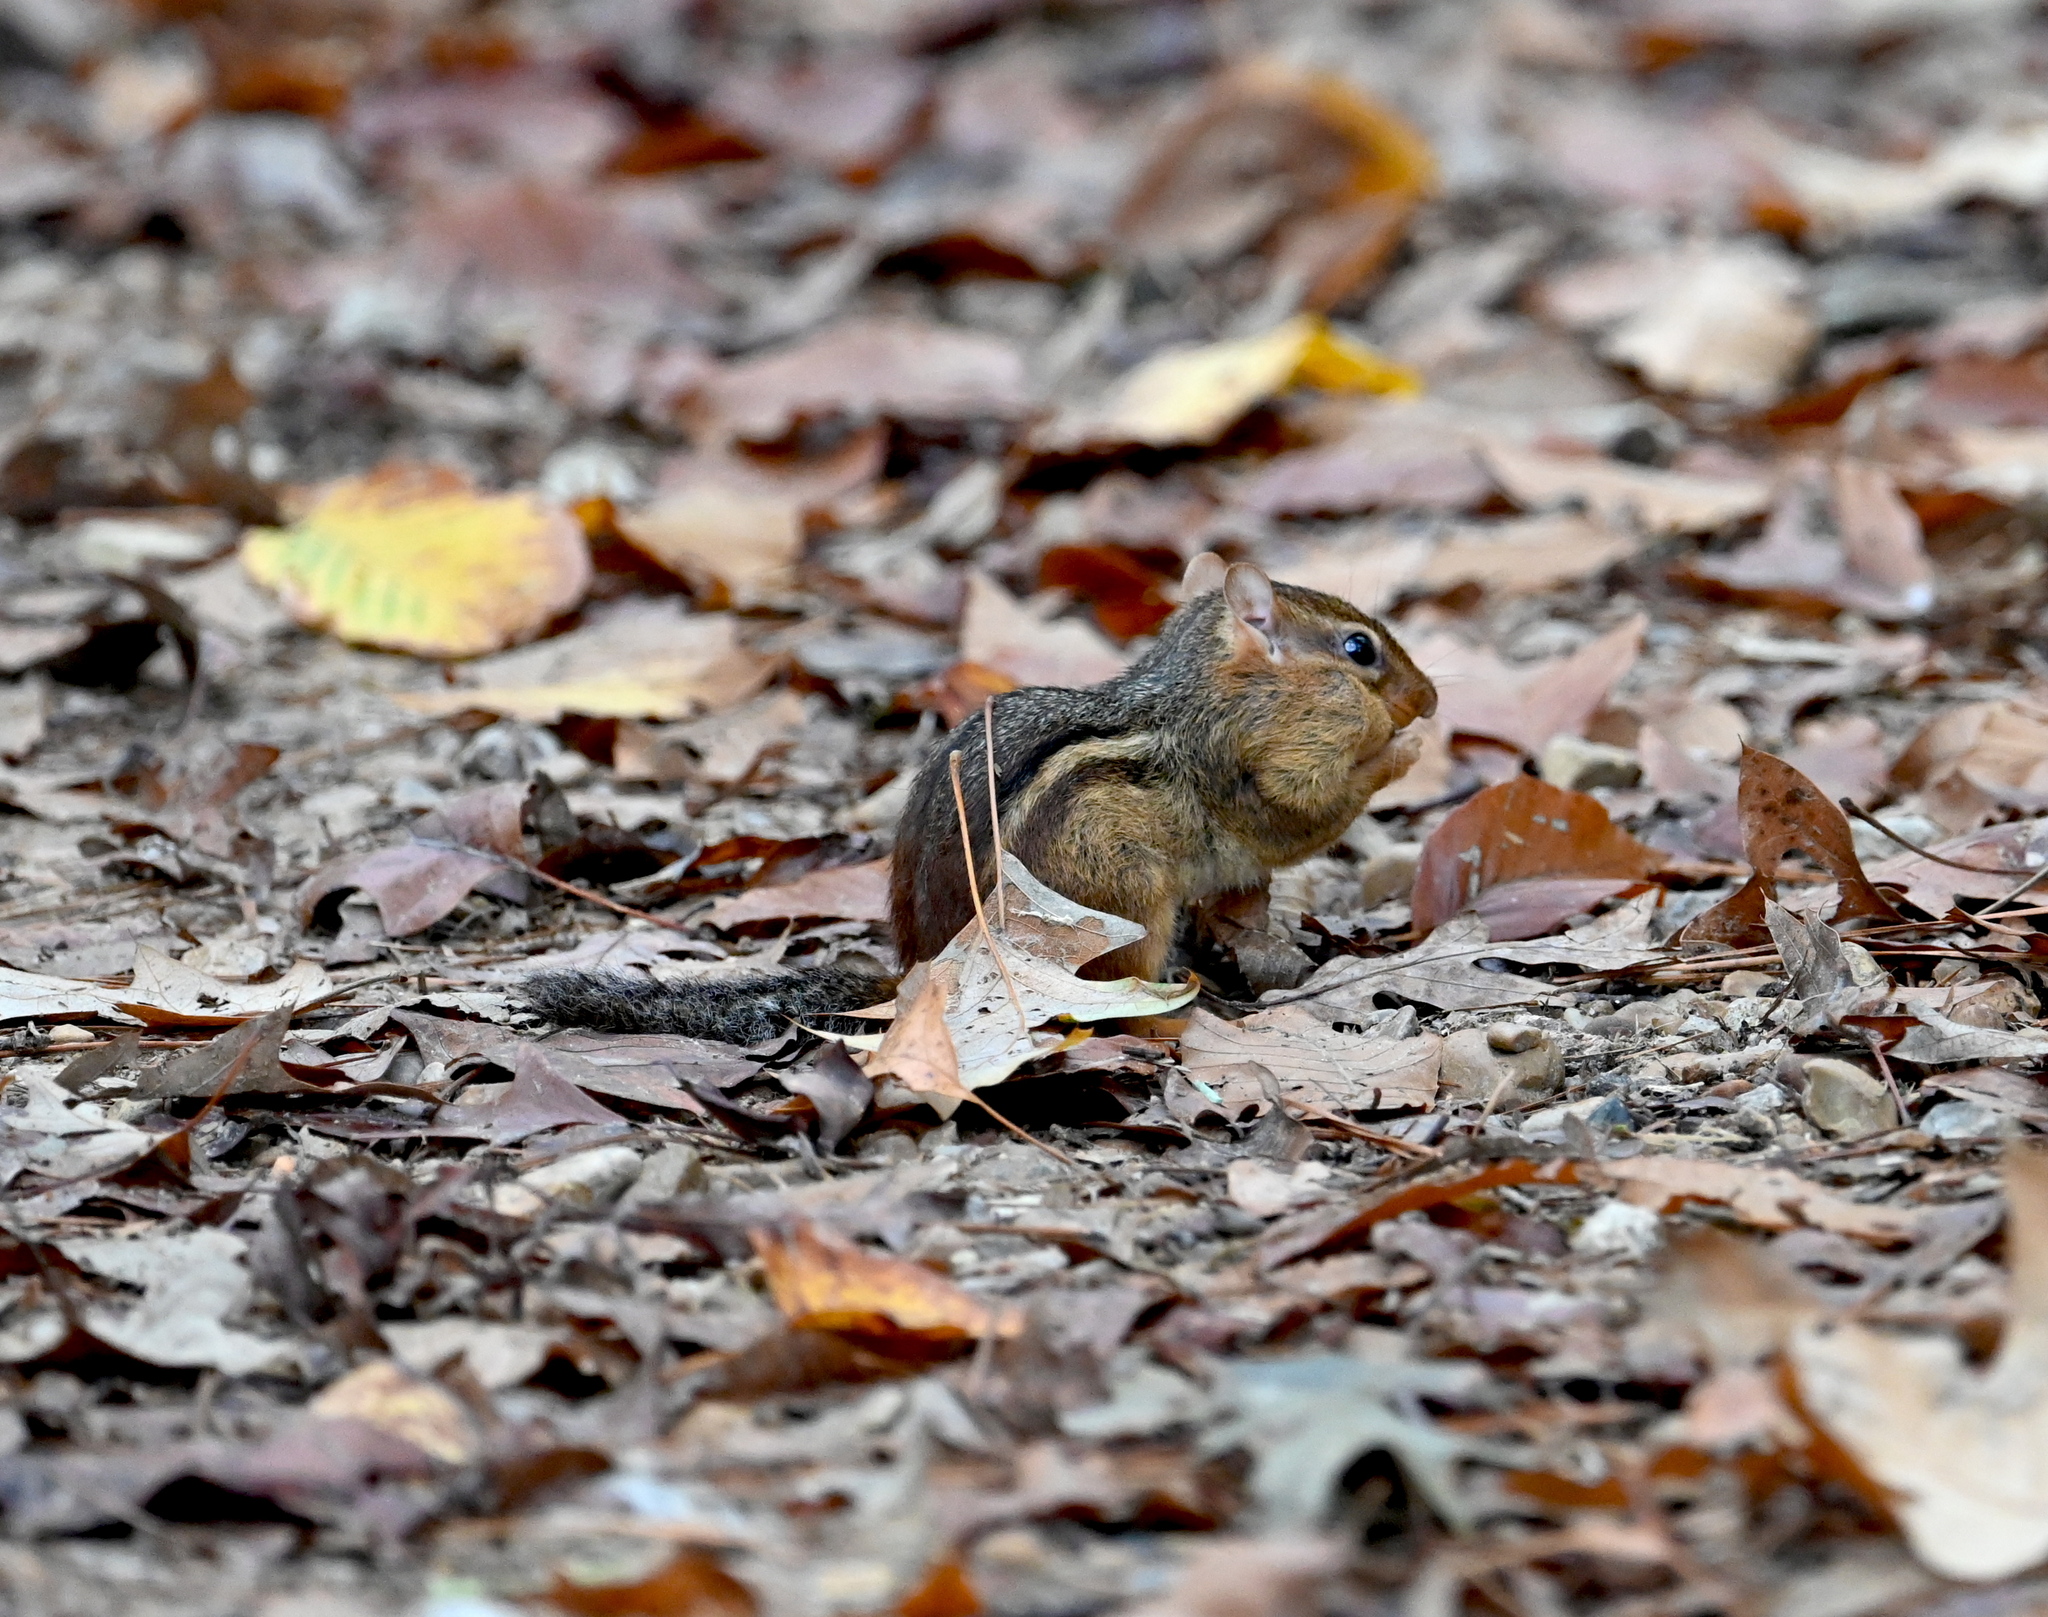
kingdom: Animalia
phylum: Chordata
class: Mammalia
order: Rodentia
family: Sciuridae
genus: Tamias
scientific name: Tamias striatus
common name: Eastern chipmunk
